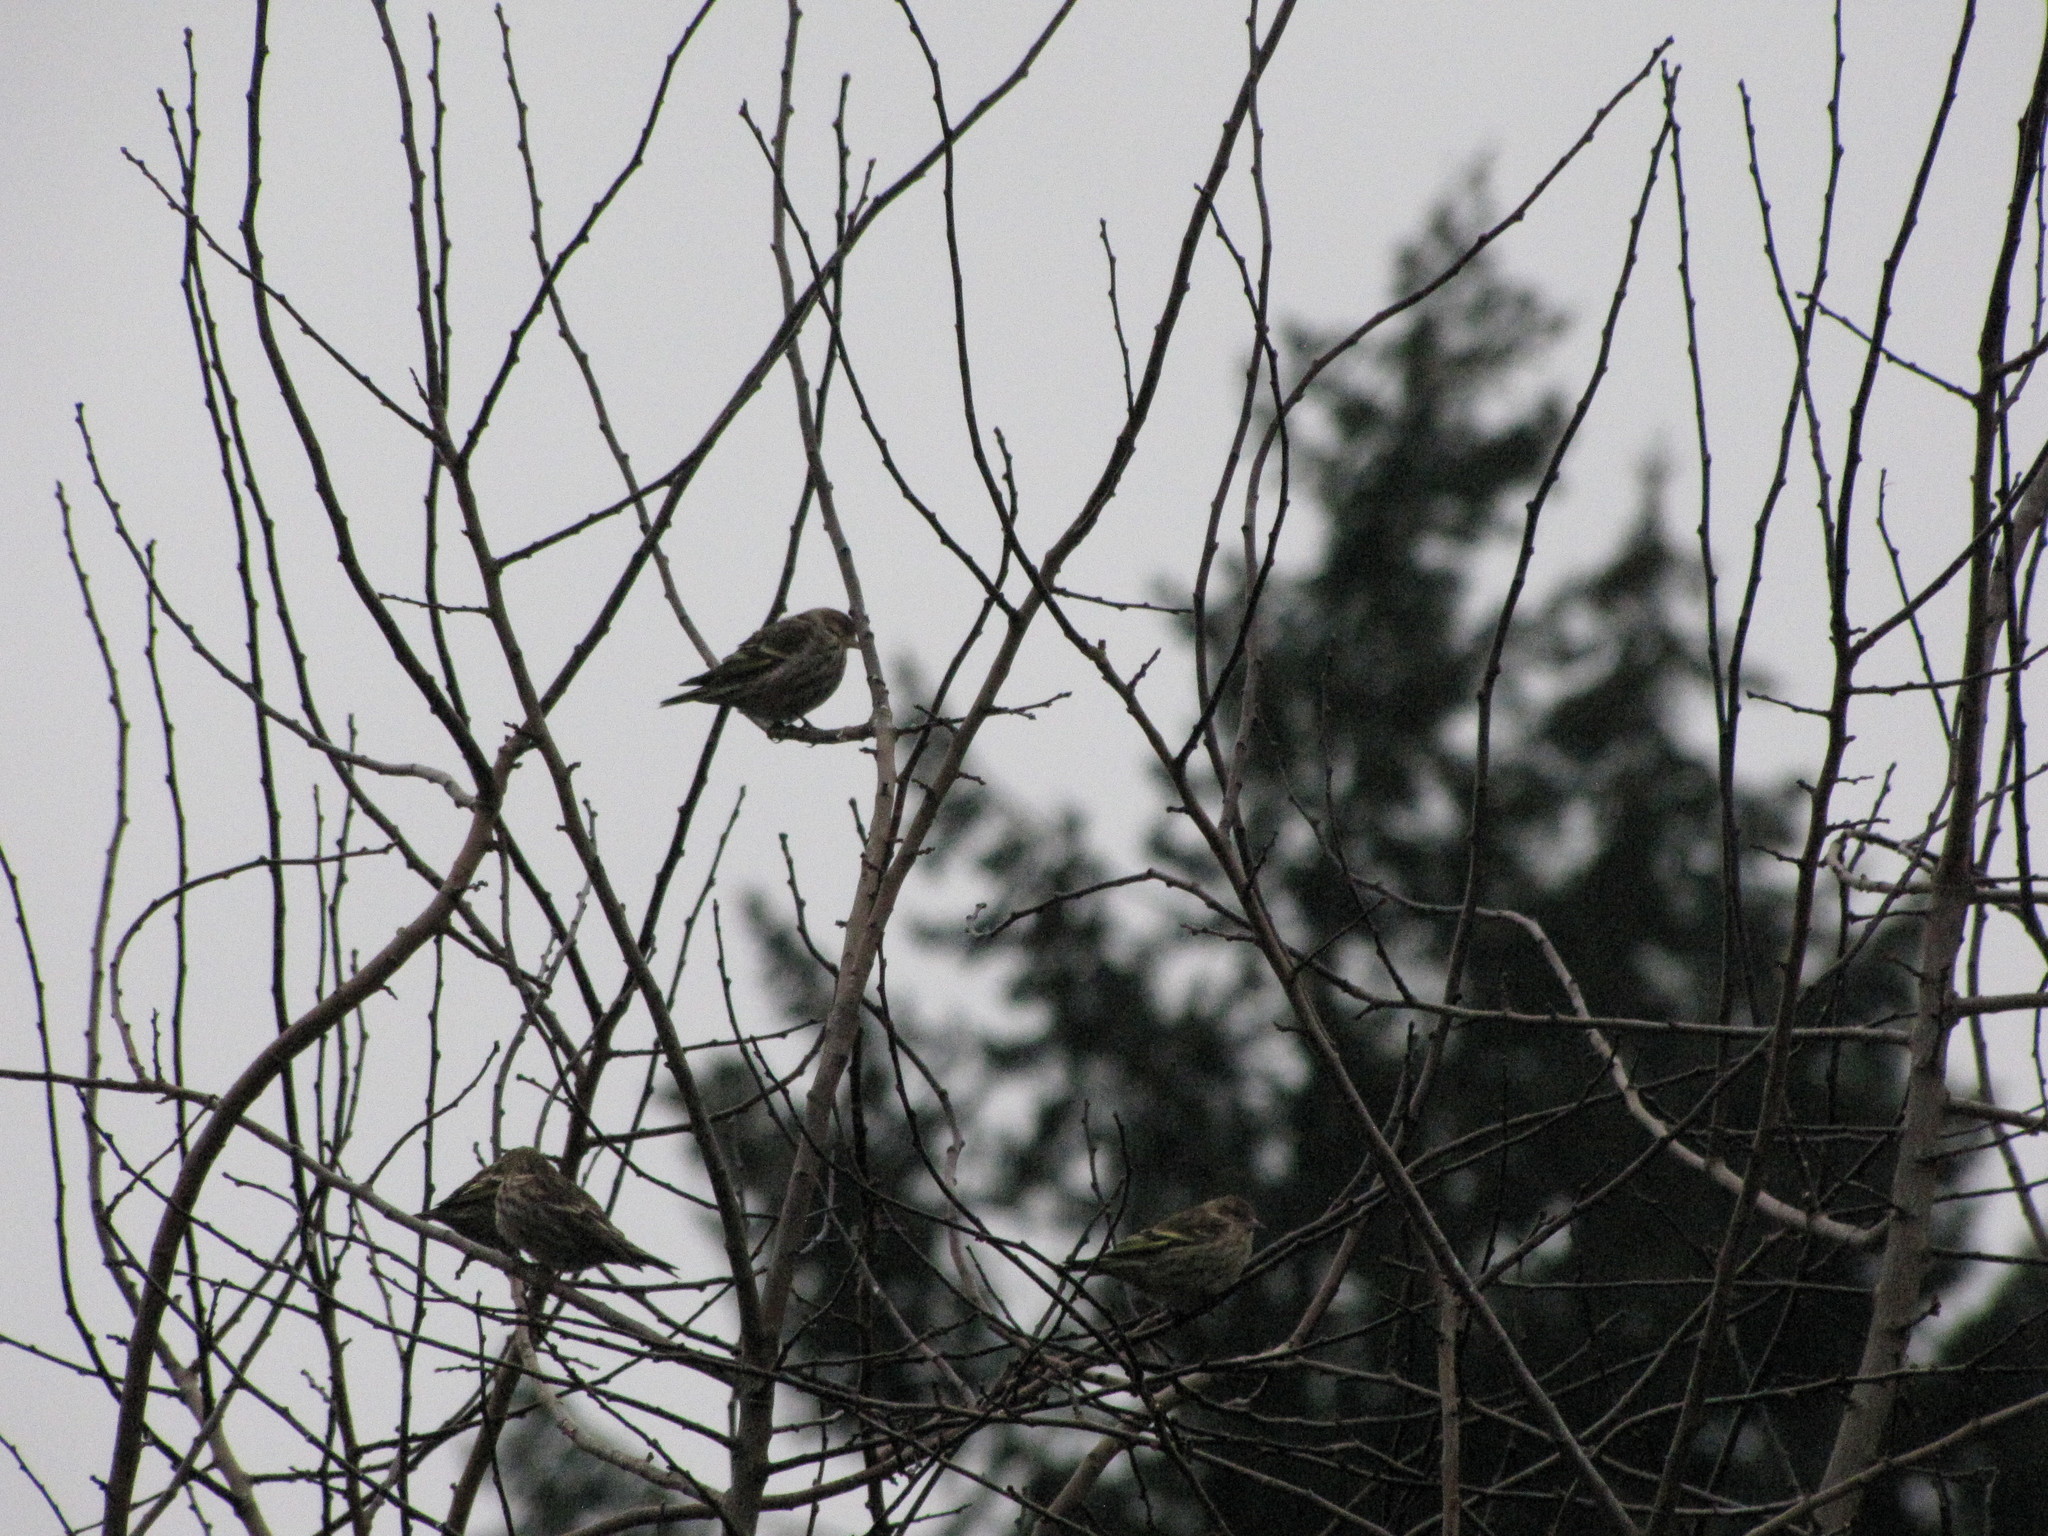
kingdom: Animalia
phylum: Chordata
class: Aves
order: Passeriformes
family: Fringillidae
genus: Spinus
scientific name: Spinus pinus
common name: Pine siskin
